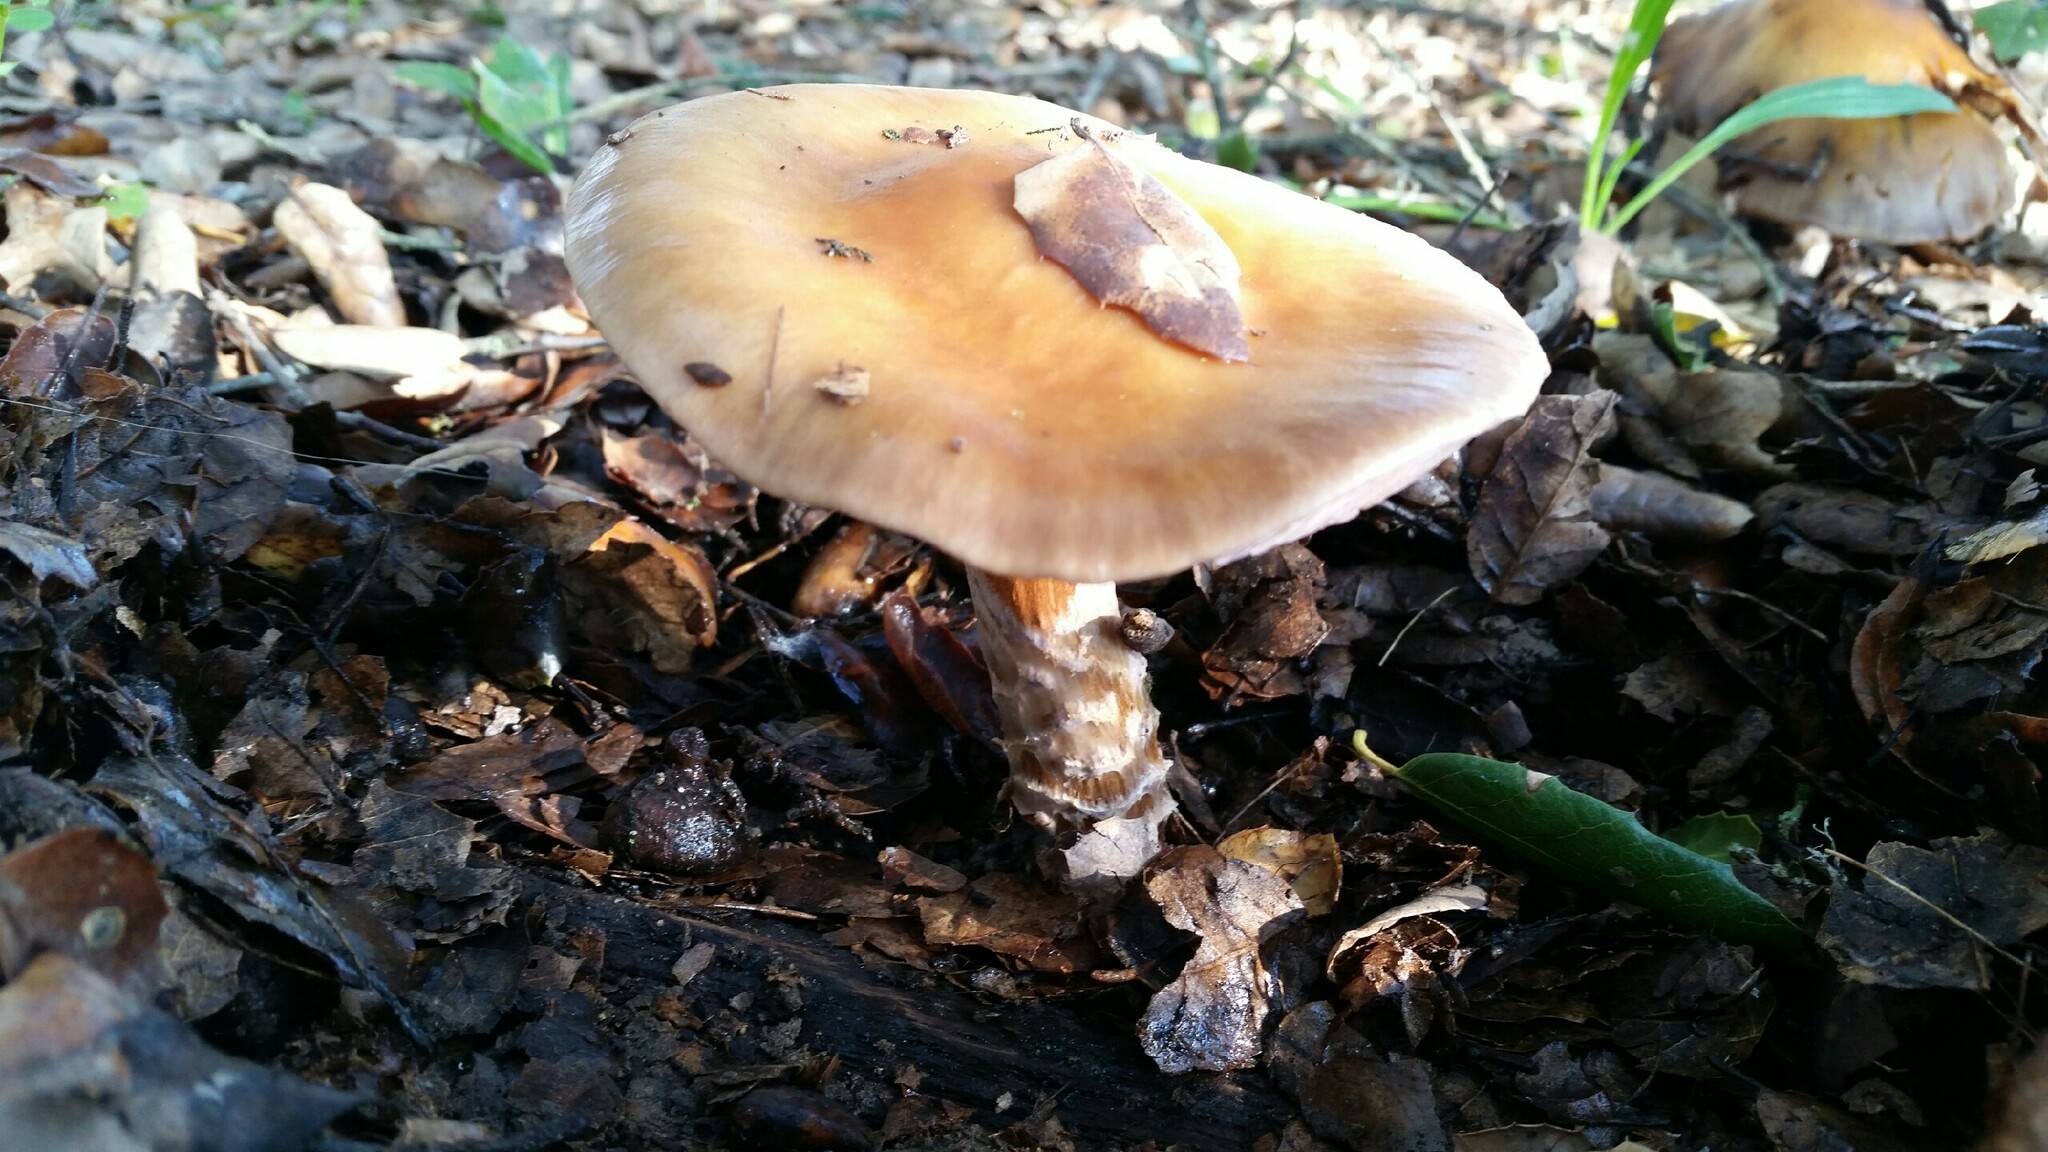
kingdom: Fungi
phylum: Basidiomycota
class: Agaricomycetes
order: Agaricales
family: Cortinariaceae
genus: Cortinarius
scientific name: Cortinarius glutinosoarmillatus
